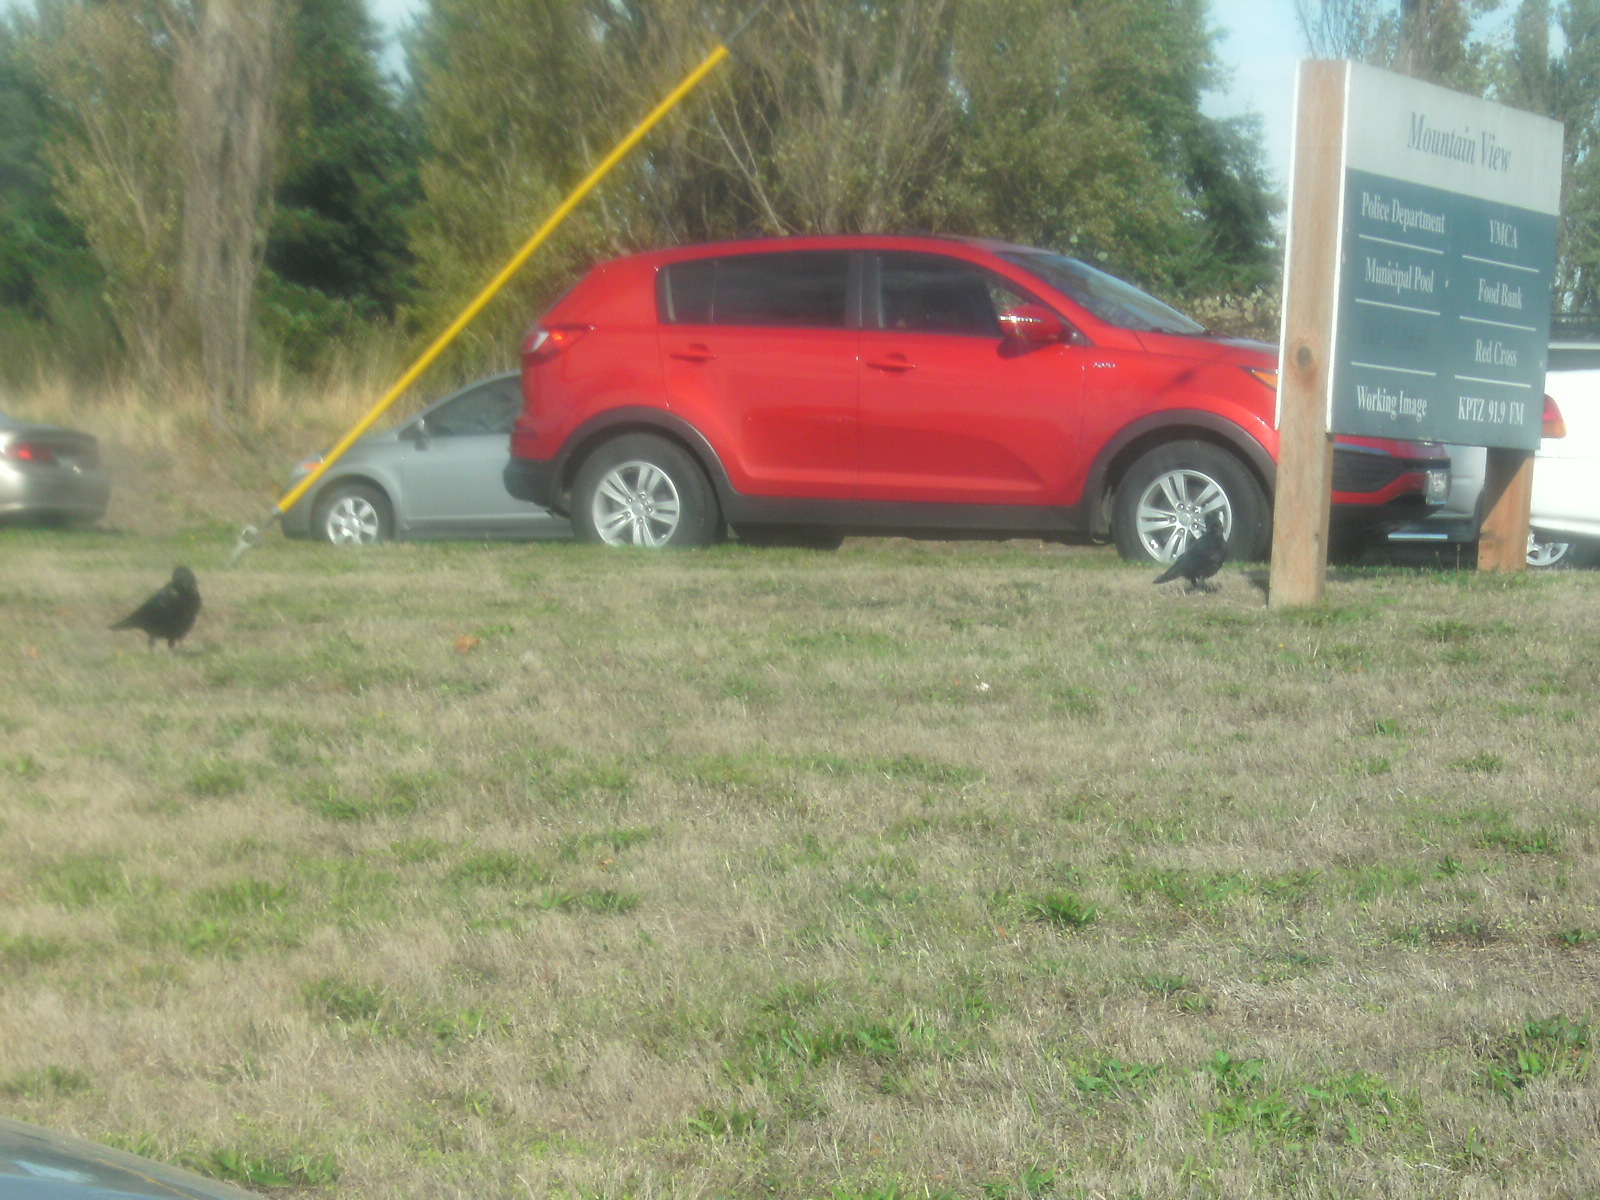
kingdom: Animalia
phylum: Chordata
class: Aves
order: Passeriformes
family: Corvidae
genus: Corvus
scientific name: Corvus brachyrhynchos
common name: American crow
